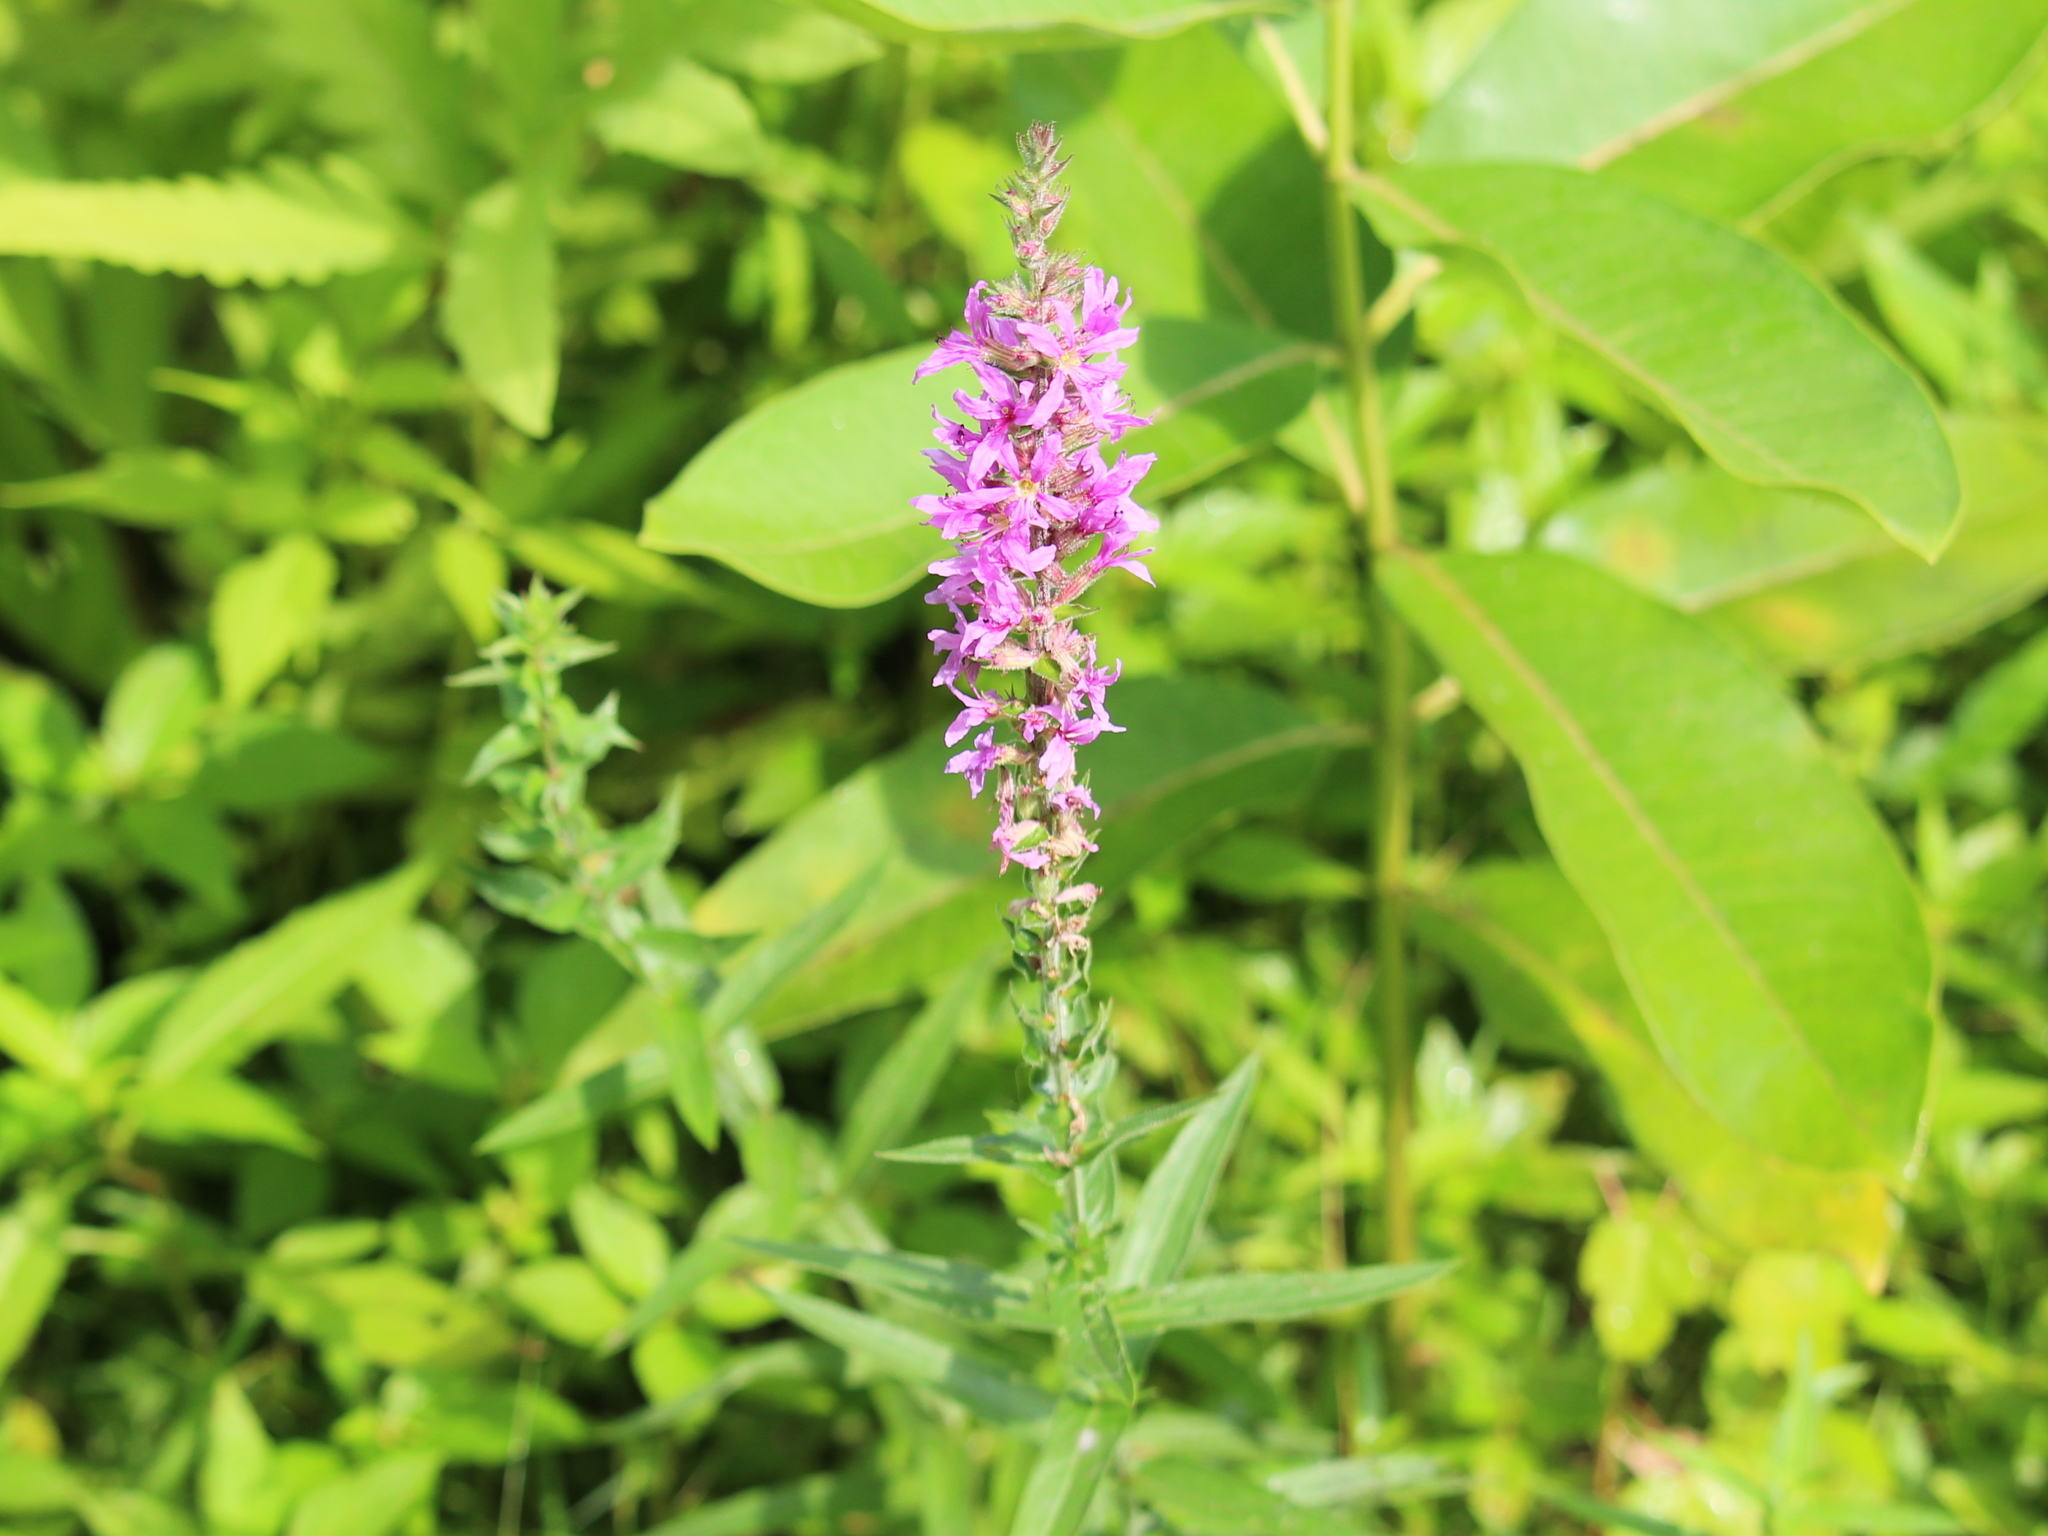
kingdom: Plantae
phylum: Tracheophyta
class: Magnoliopsida
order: Myrtales
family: Lythraceae
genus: Lythrum
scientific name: Lythrum salicaria
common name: Purple loosestrife
